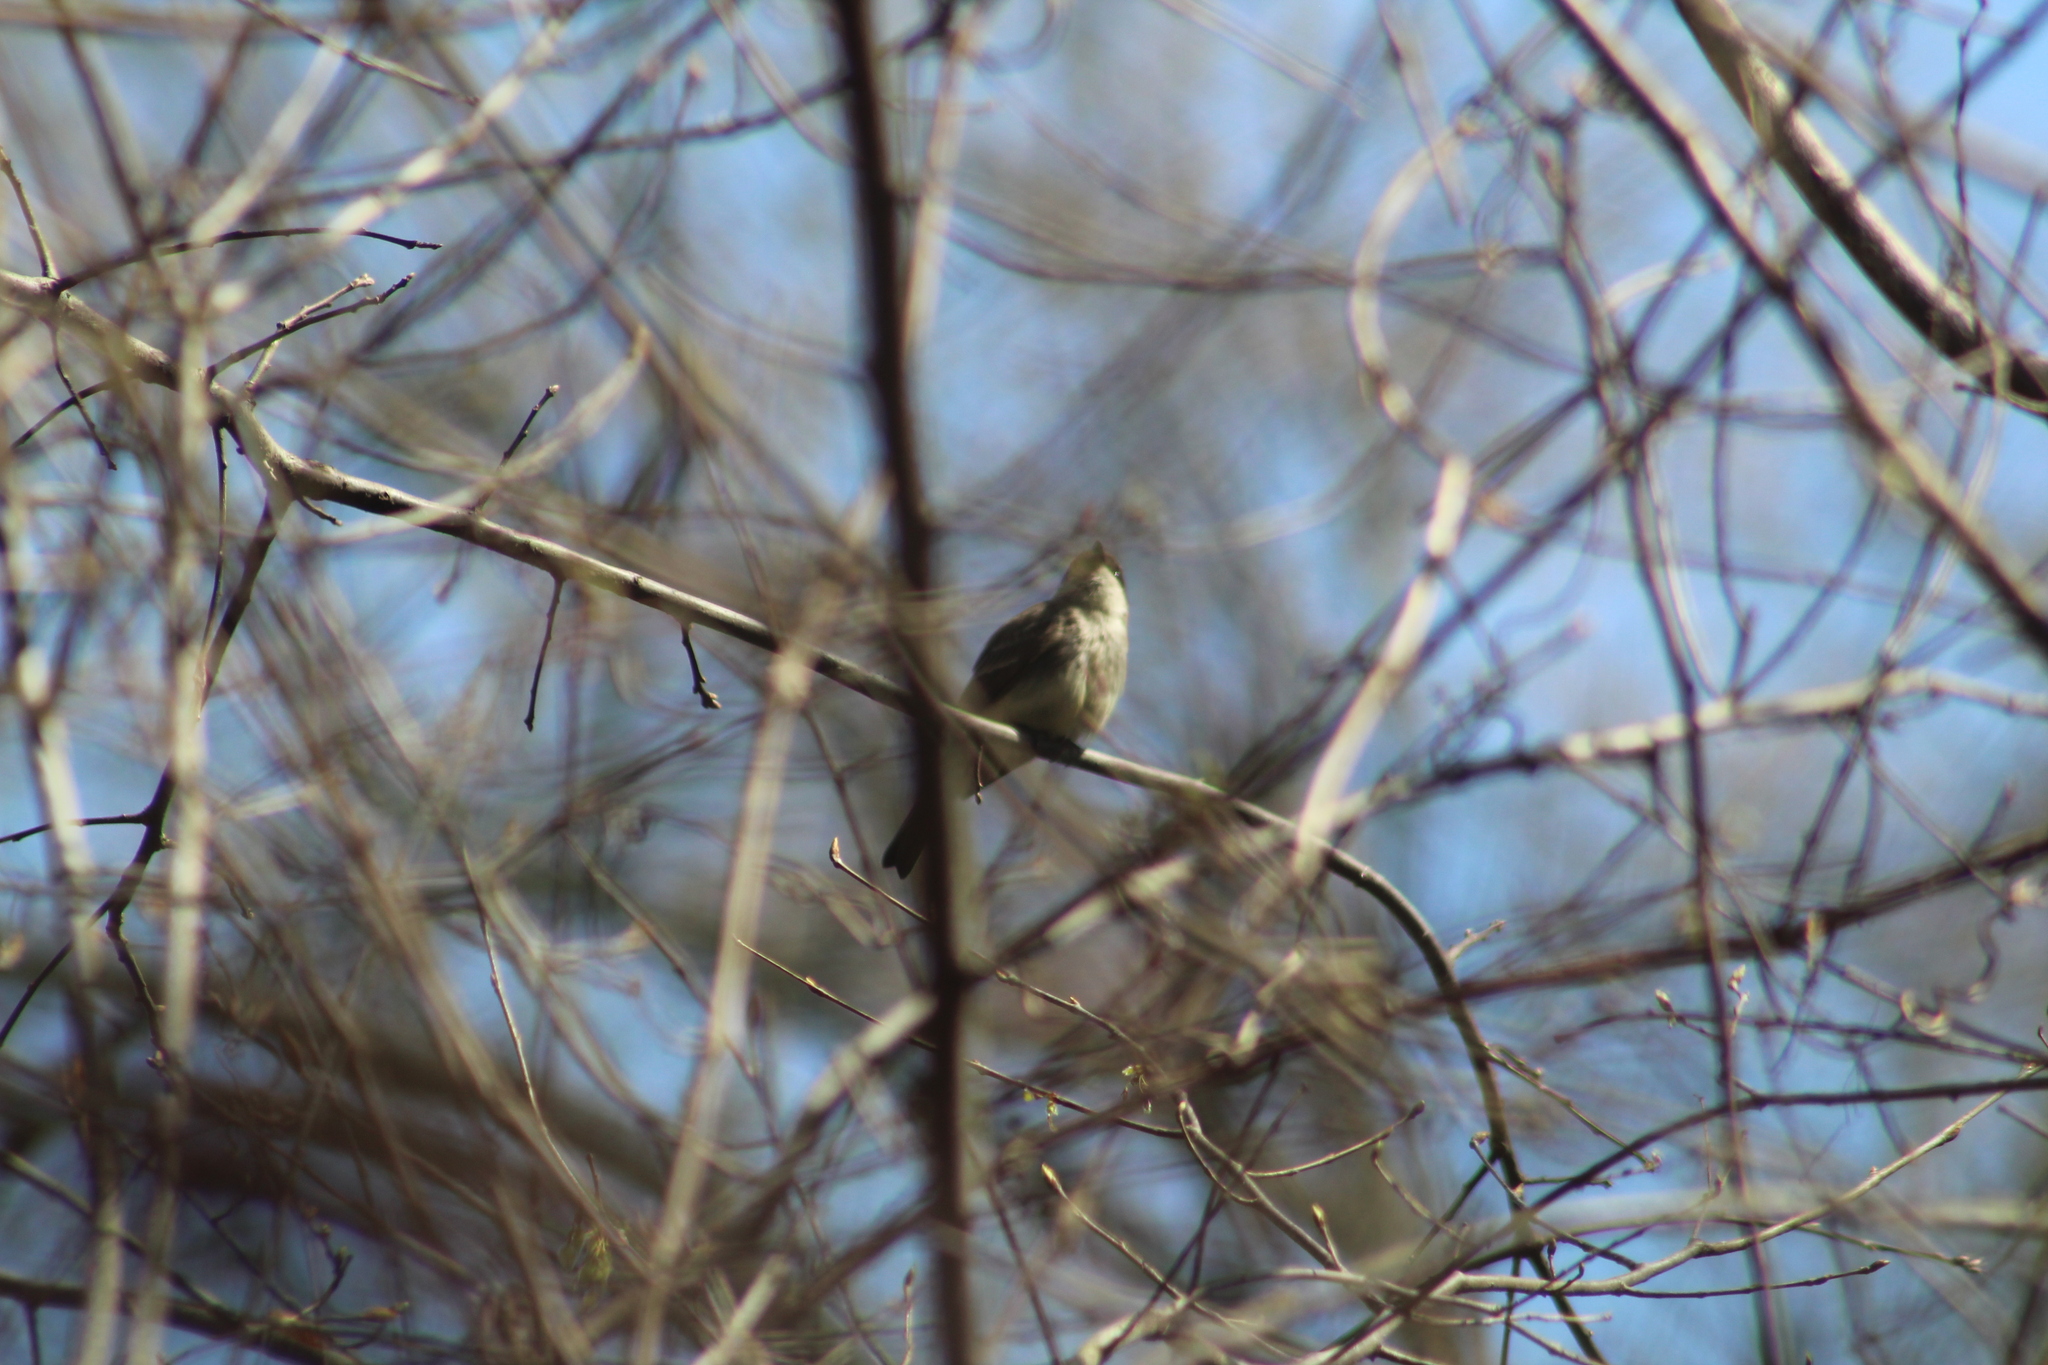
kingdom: Animalia
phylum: Chordata
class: Aves
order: Passeriformes
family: Tyrannidae
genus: Sayornis
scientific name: Sayornis phoebe
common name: Eastern phoebe
